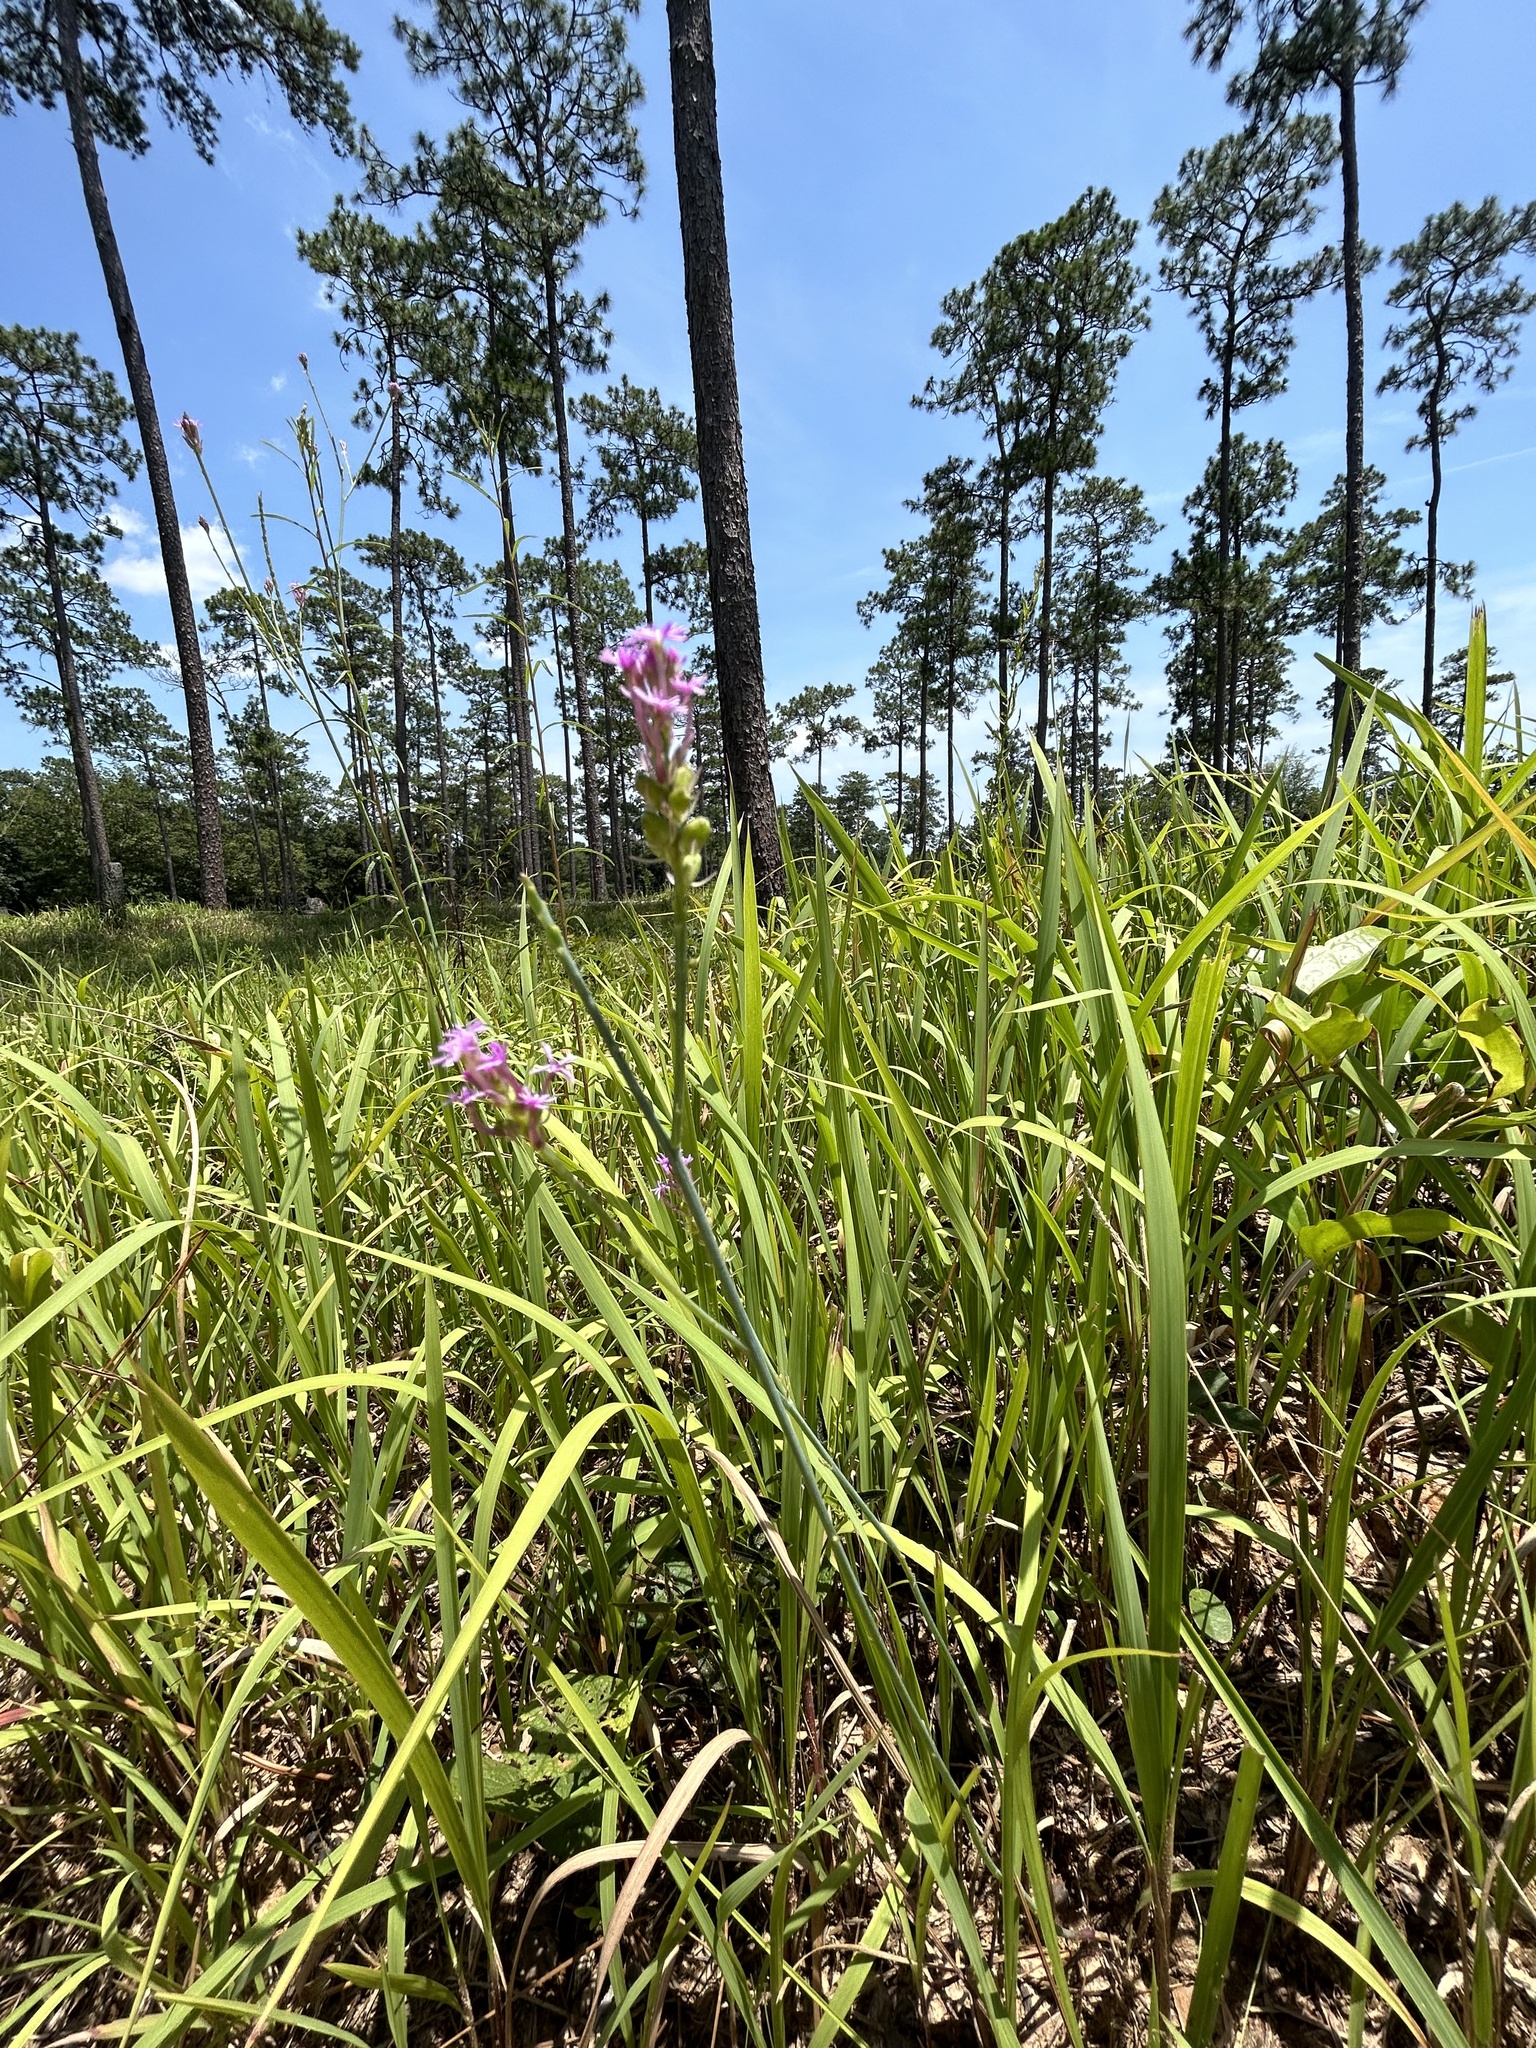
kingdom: Plantae
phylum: Tracheophyta
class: Magnoliopsida
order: Fabales
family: Polygalaceae
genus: Polygala
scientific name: Polygala incarnata
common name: Pink milkwort
